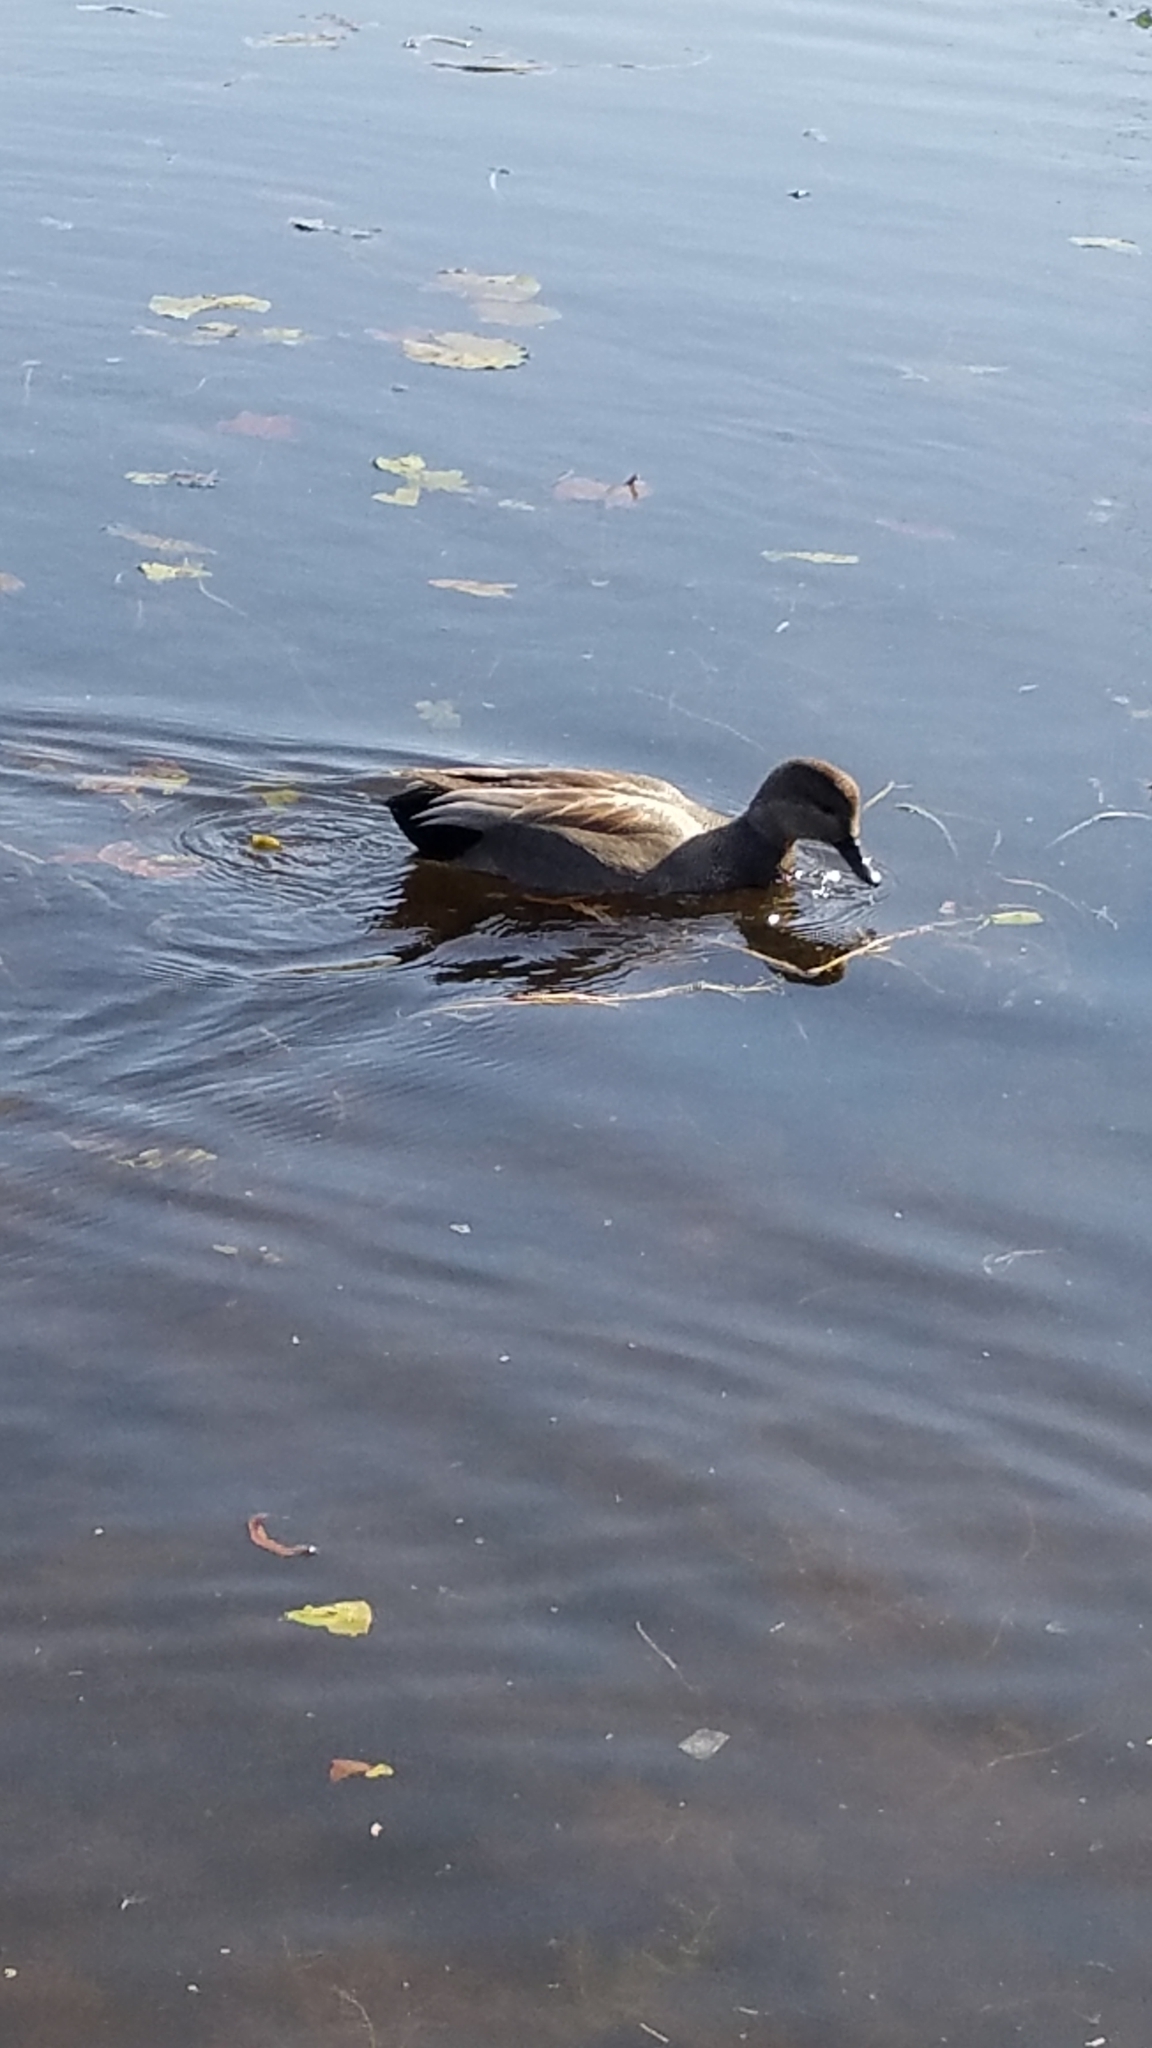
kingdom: Animalia
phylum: Chordata
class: Aves
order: Anseriformes
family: Anatidae
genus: Mareca
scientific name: Mareca strepera
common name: Gadwall
